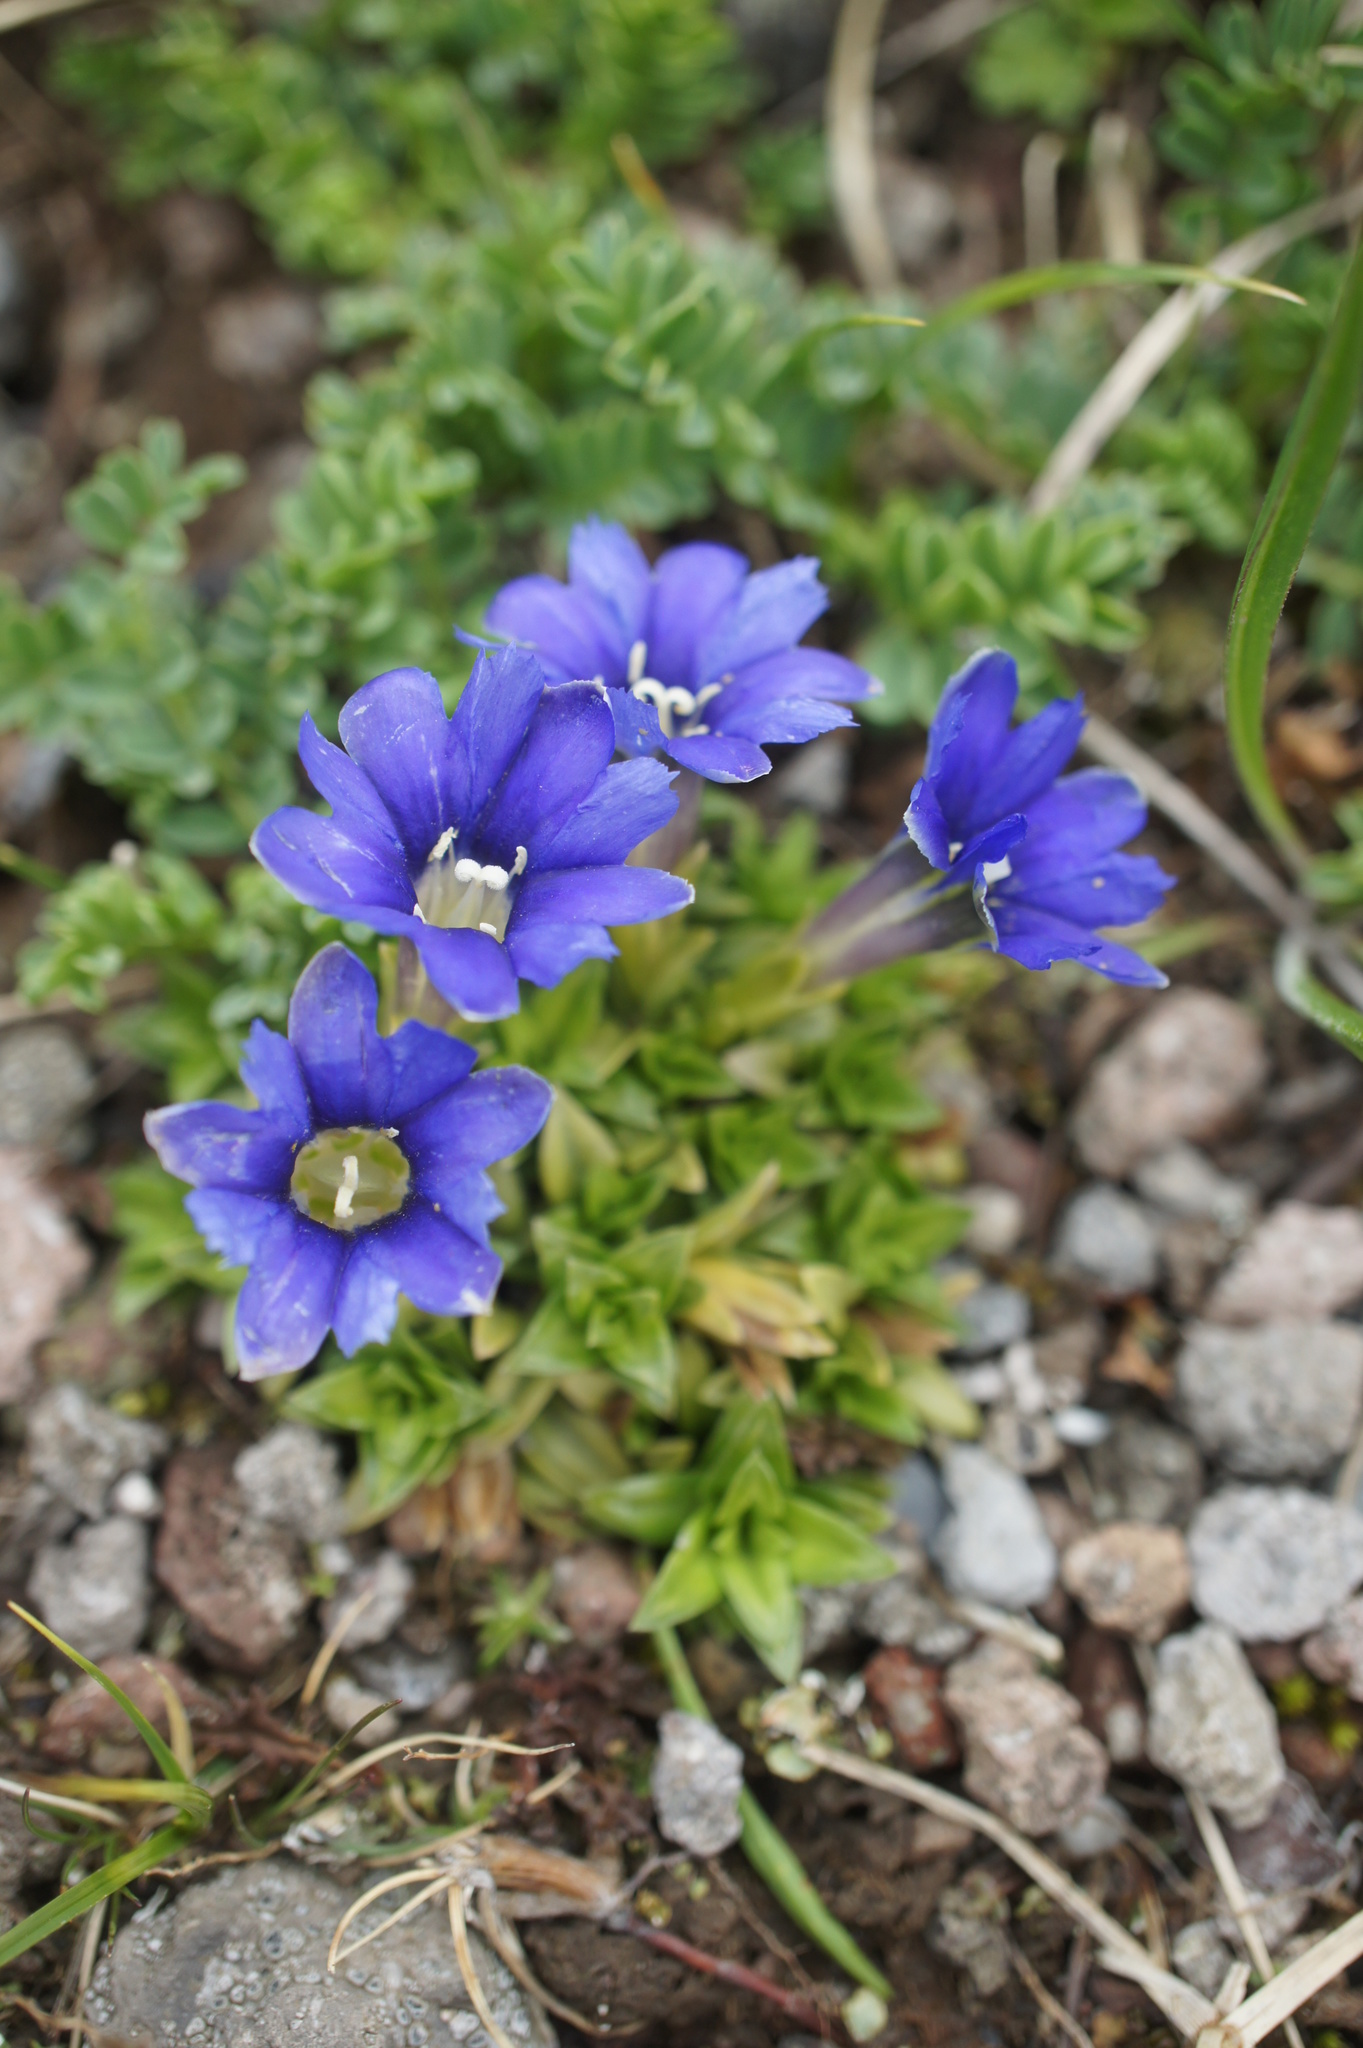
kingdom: Plantae
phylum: Tracheophyta
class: Magnoliopsida
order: Gentianales
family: Gentianaceae
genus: Gentiana
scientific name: Gentiana dshimilensis
